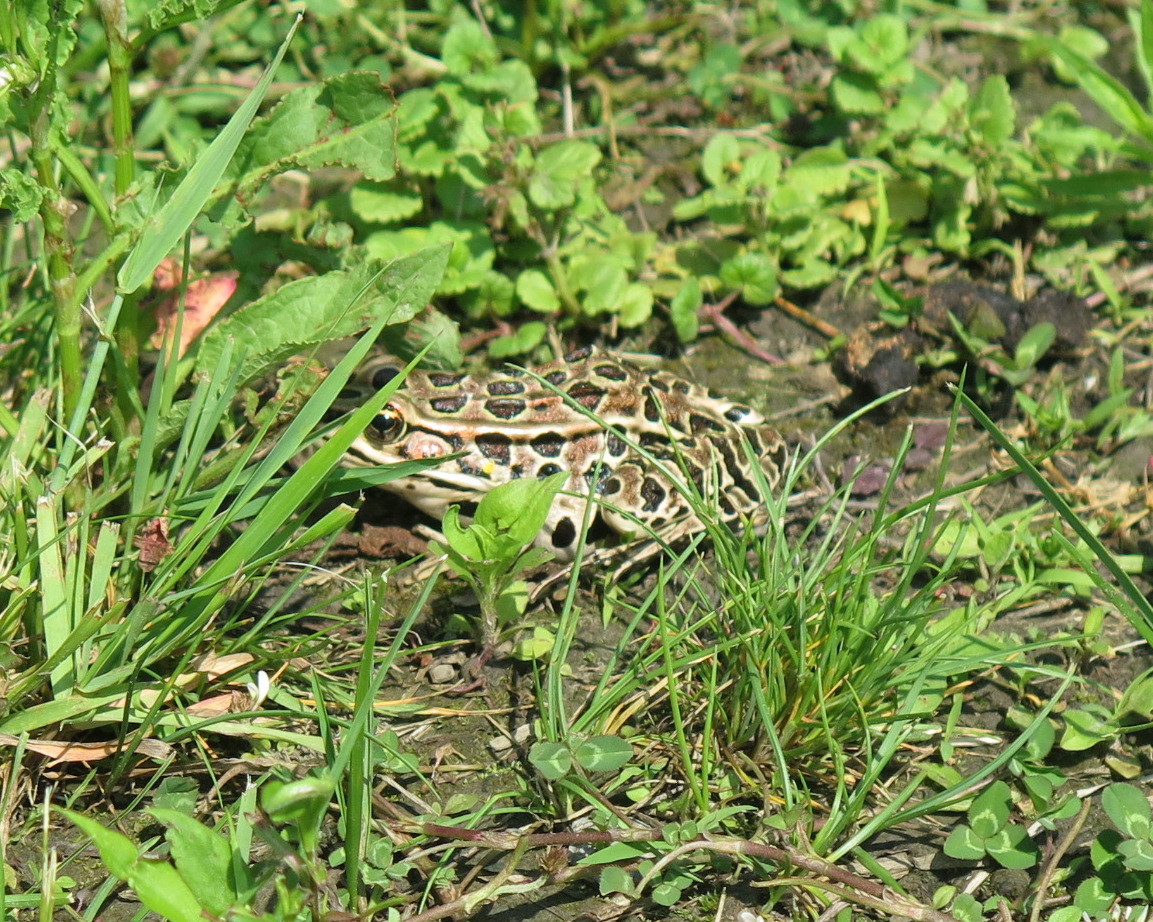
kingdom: Animalia
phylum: Chordata
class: Amphibia
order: Anura
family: Ranidae
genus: Lithobates
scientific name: Lithobates pipiens
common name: Northern leopard frog
